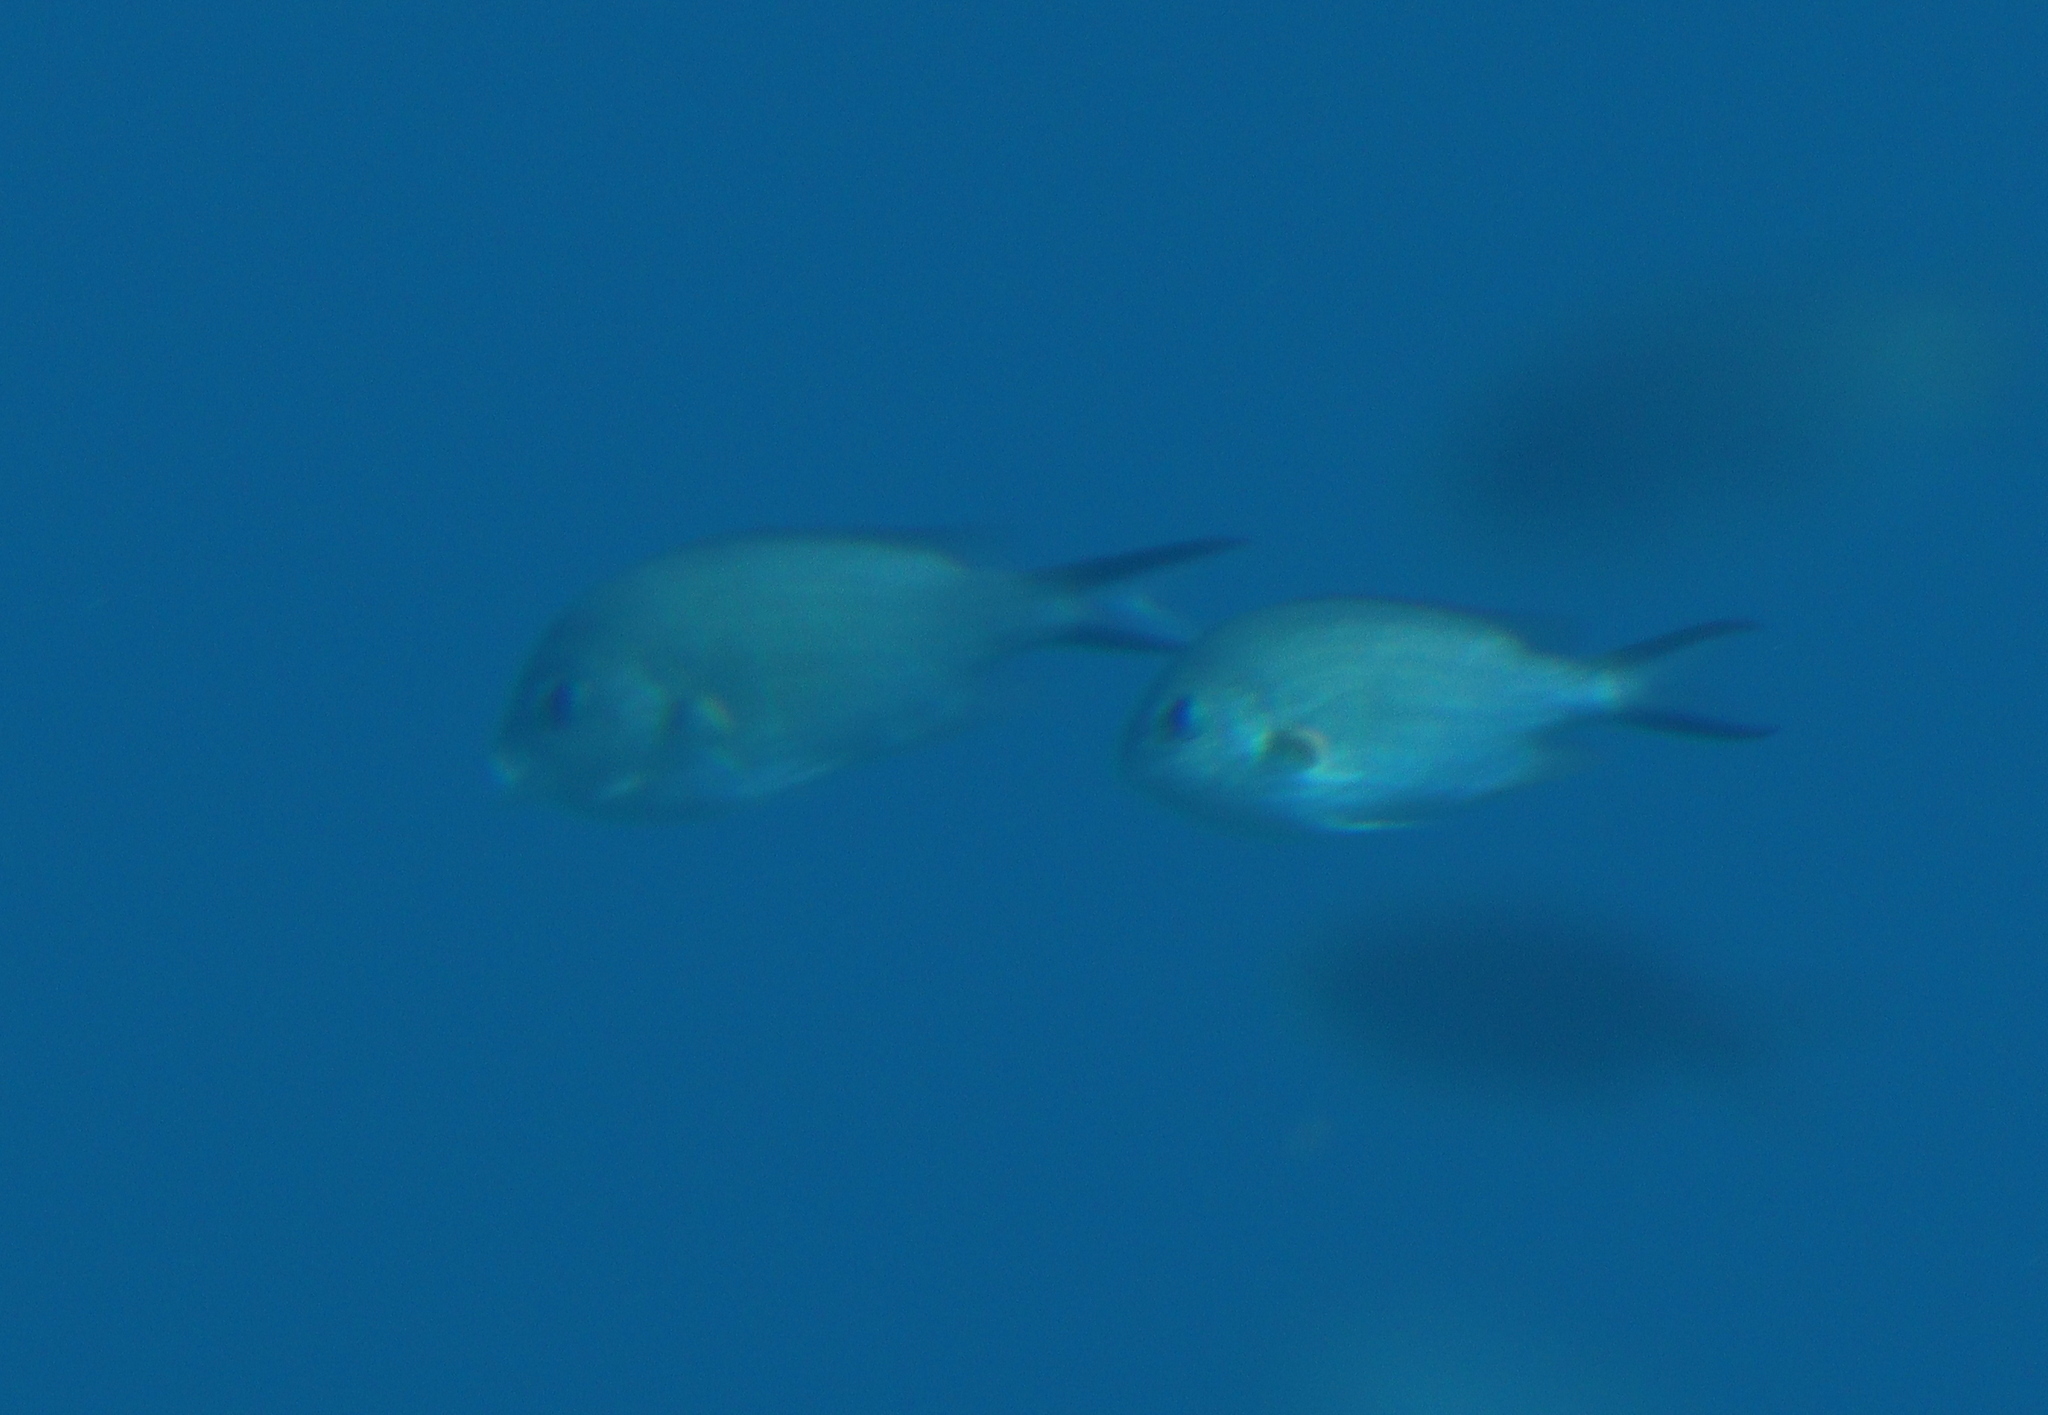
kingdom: Animalia
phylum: Chordata
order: Perciformes
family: Pomacentridae
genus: Chromis
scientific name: Chromis flavaxilla
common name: Arabian chromis
